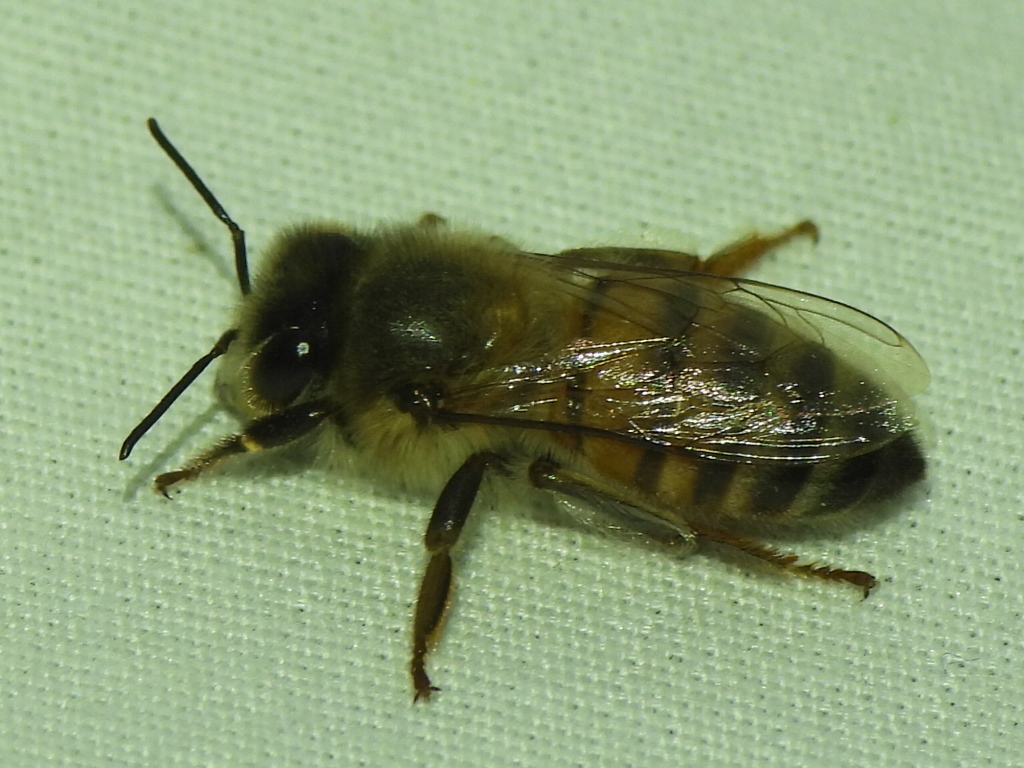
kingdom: Animalia
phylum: Arthropoda
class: Insecta
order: Hymenoptera
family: Apidae
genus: Apis
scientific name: Apis mellifera
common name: Honey bee
